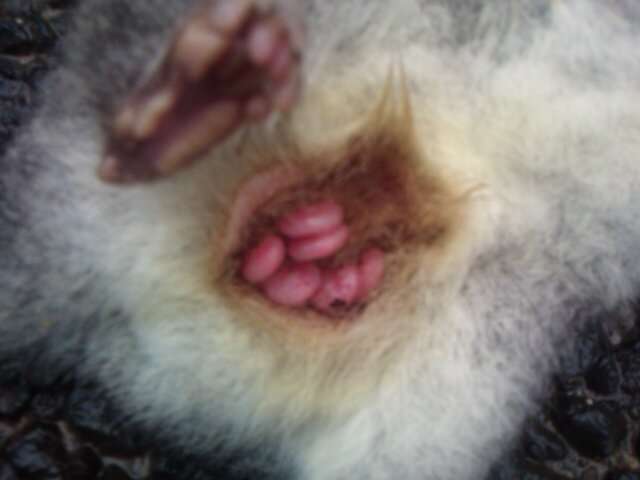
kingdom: Animalia
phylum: Chordata
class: Mammalia
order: Dasyuromorphia
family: Dasyuridae
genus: Phascogale
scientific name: Phascogale tapoatafa
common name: Brush-tailed phascogale
